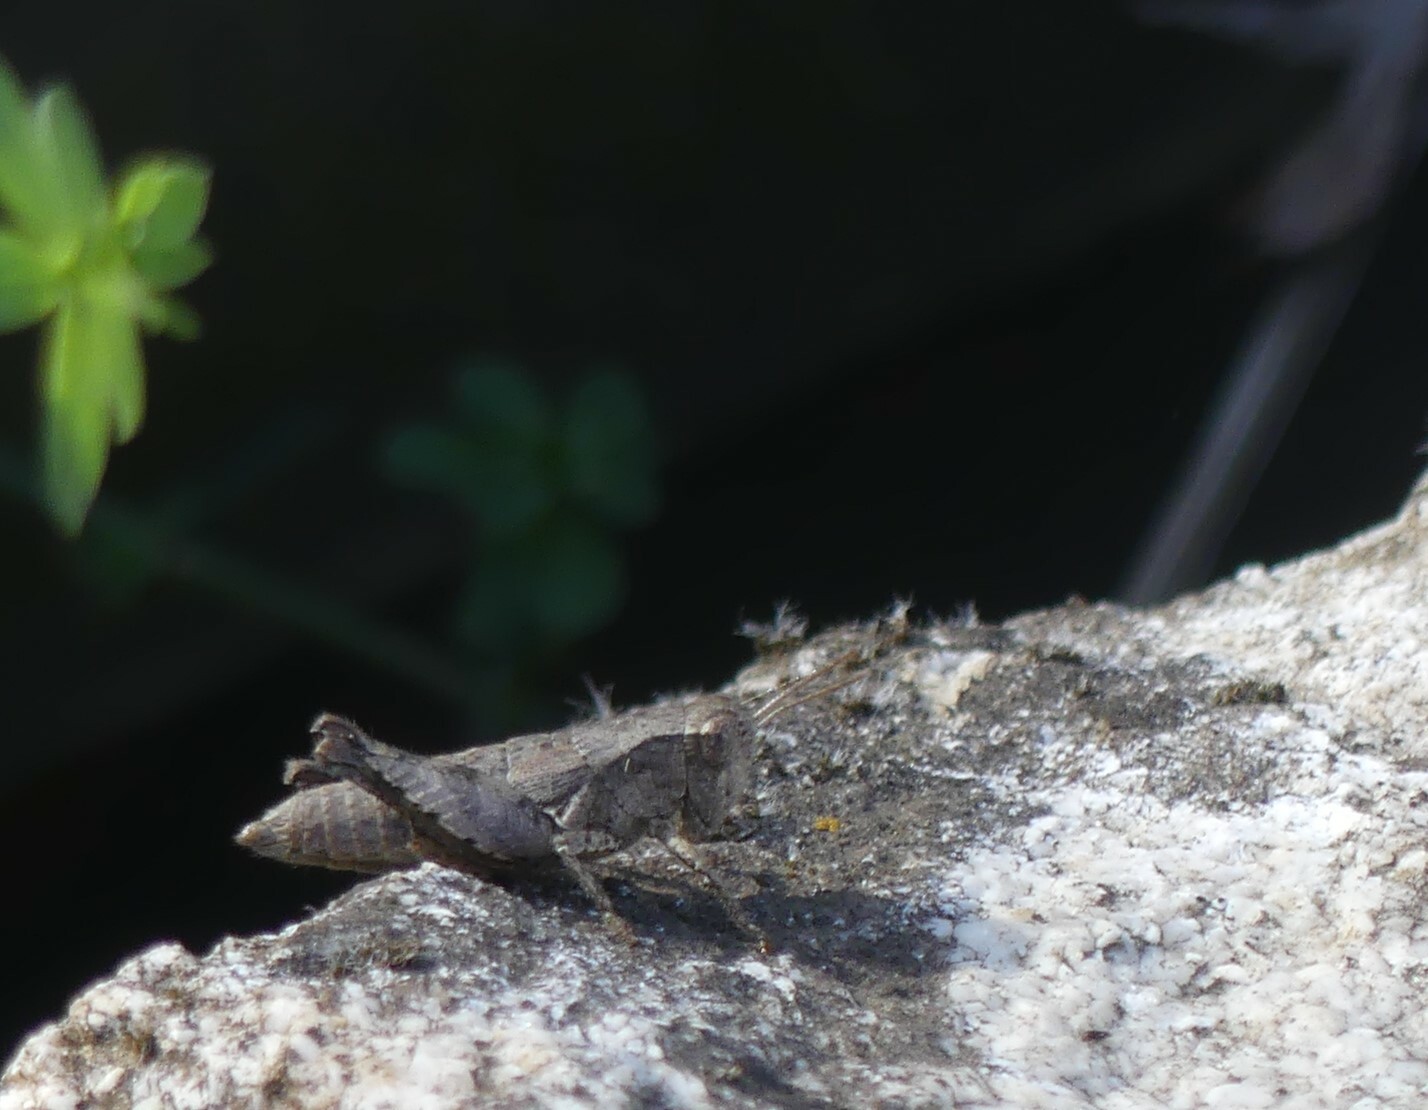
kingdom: Animalia
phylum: Arthropoda
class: Insecta
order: Orthoptera
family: Acrididae
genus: Pezotettix
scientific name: Pezotettix giornae
